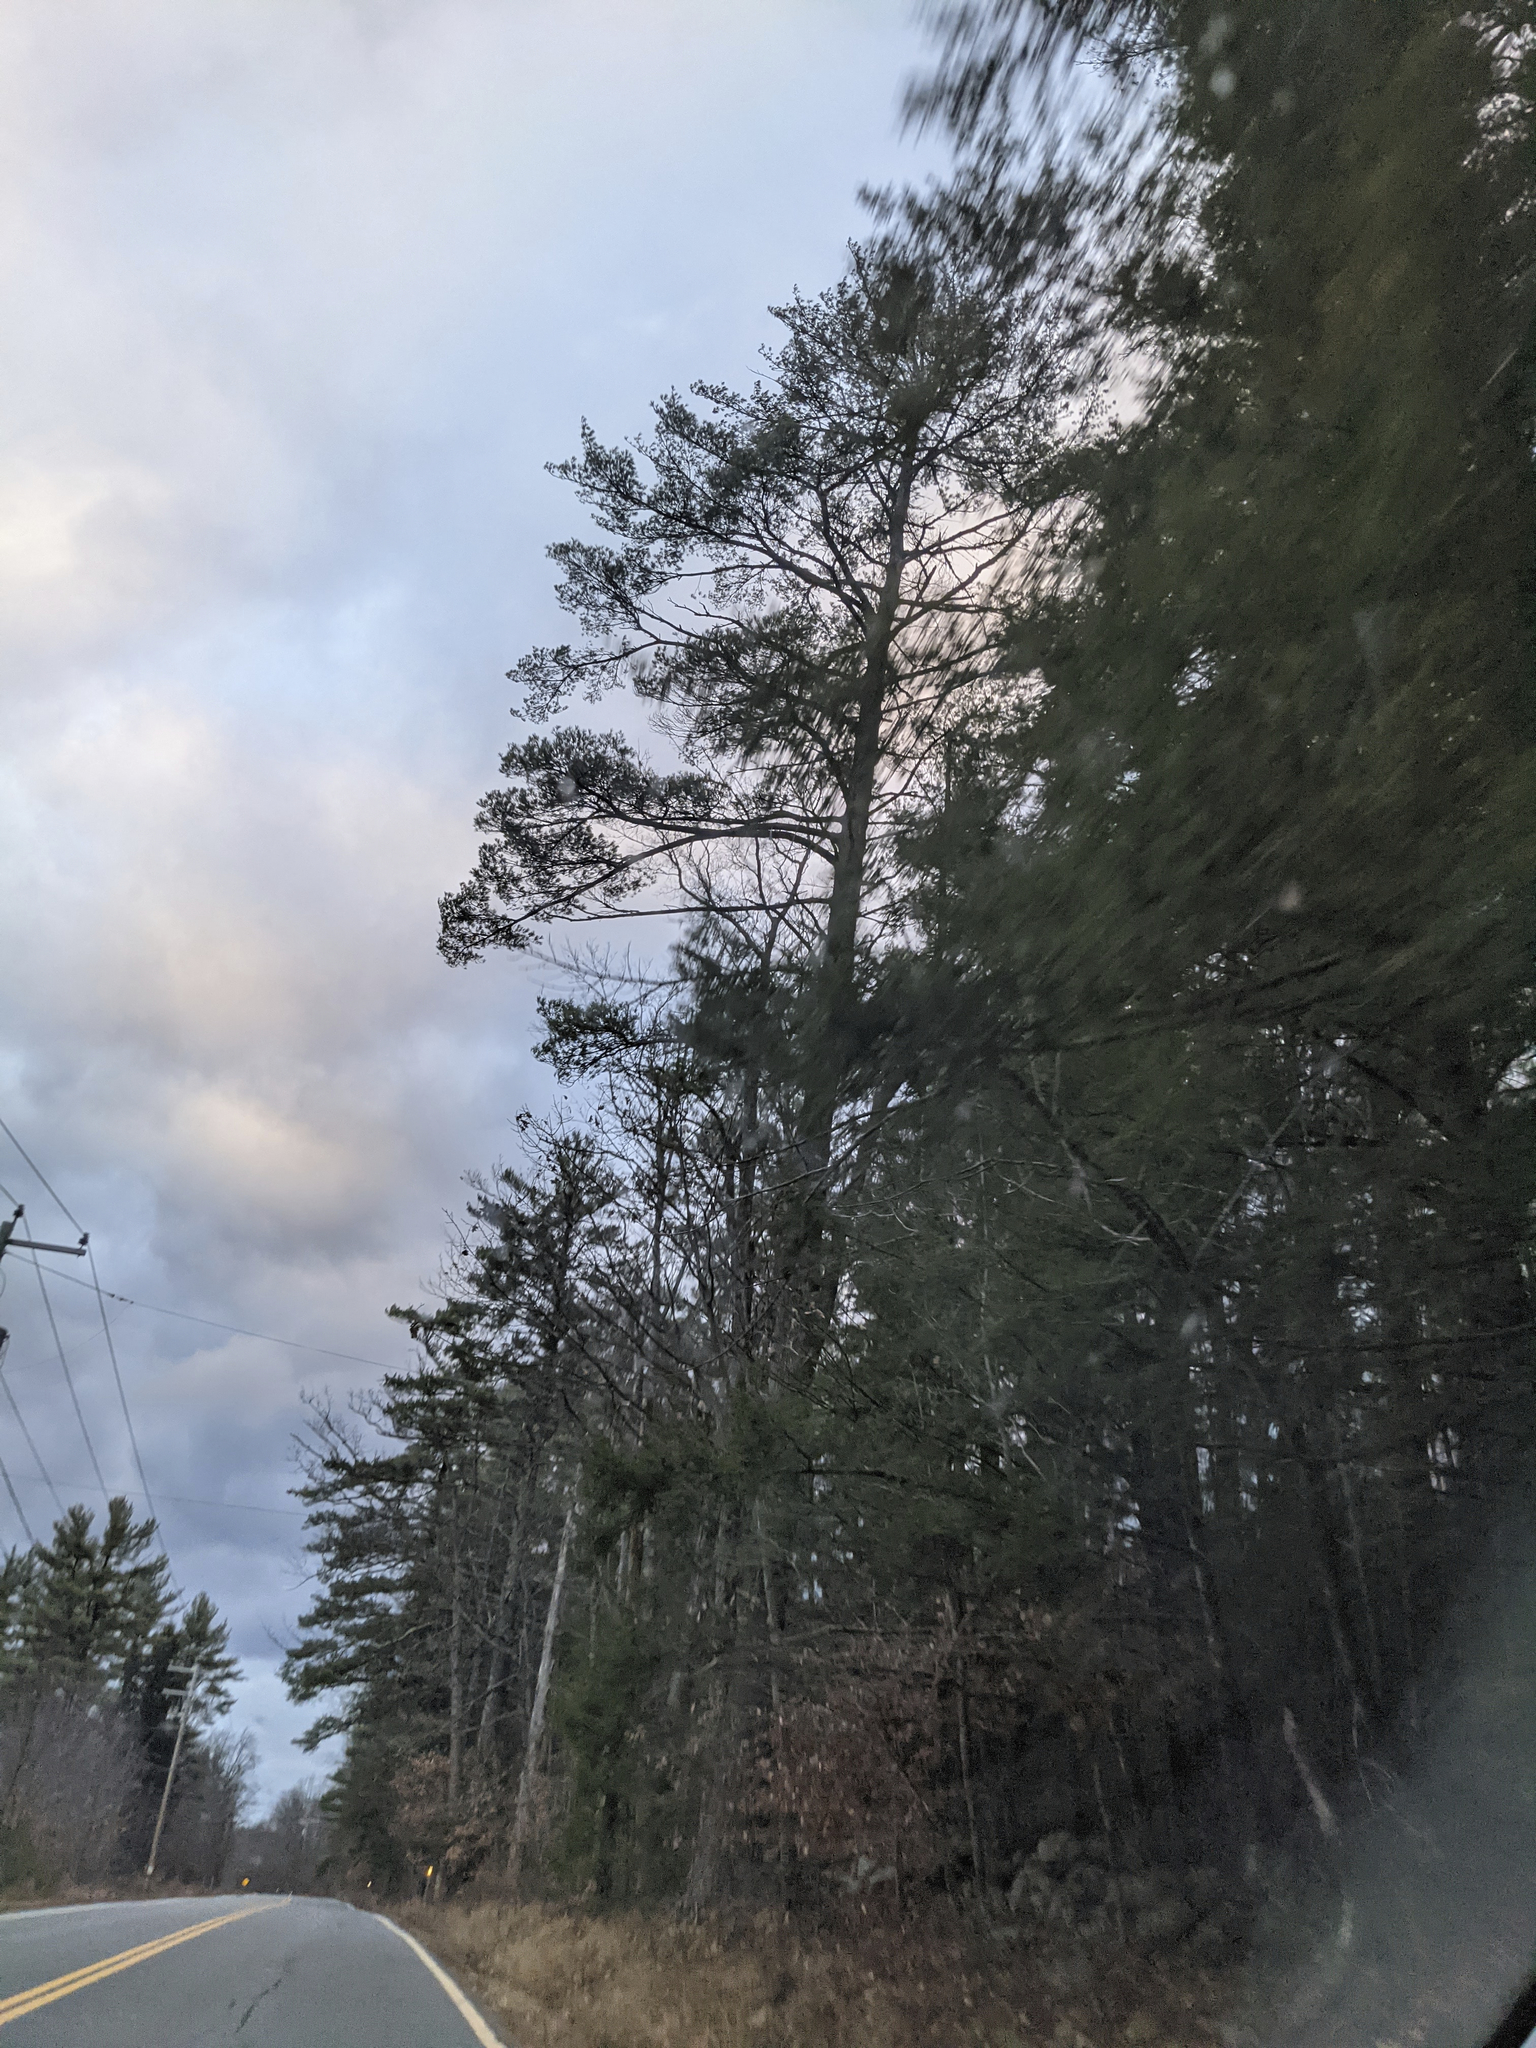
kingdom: Plantae
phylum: Tracheophyta
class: Pinopsida
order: Pinales
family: Pinaceae
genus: Pinus
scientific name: Pinus strobus
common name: Weymouth pine
